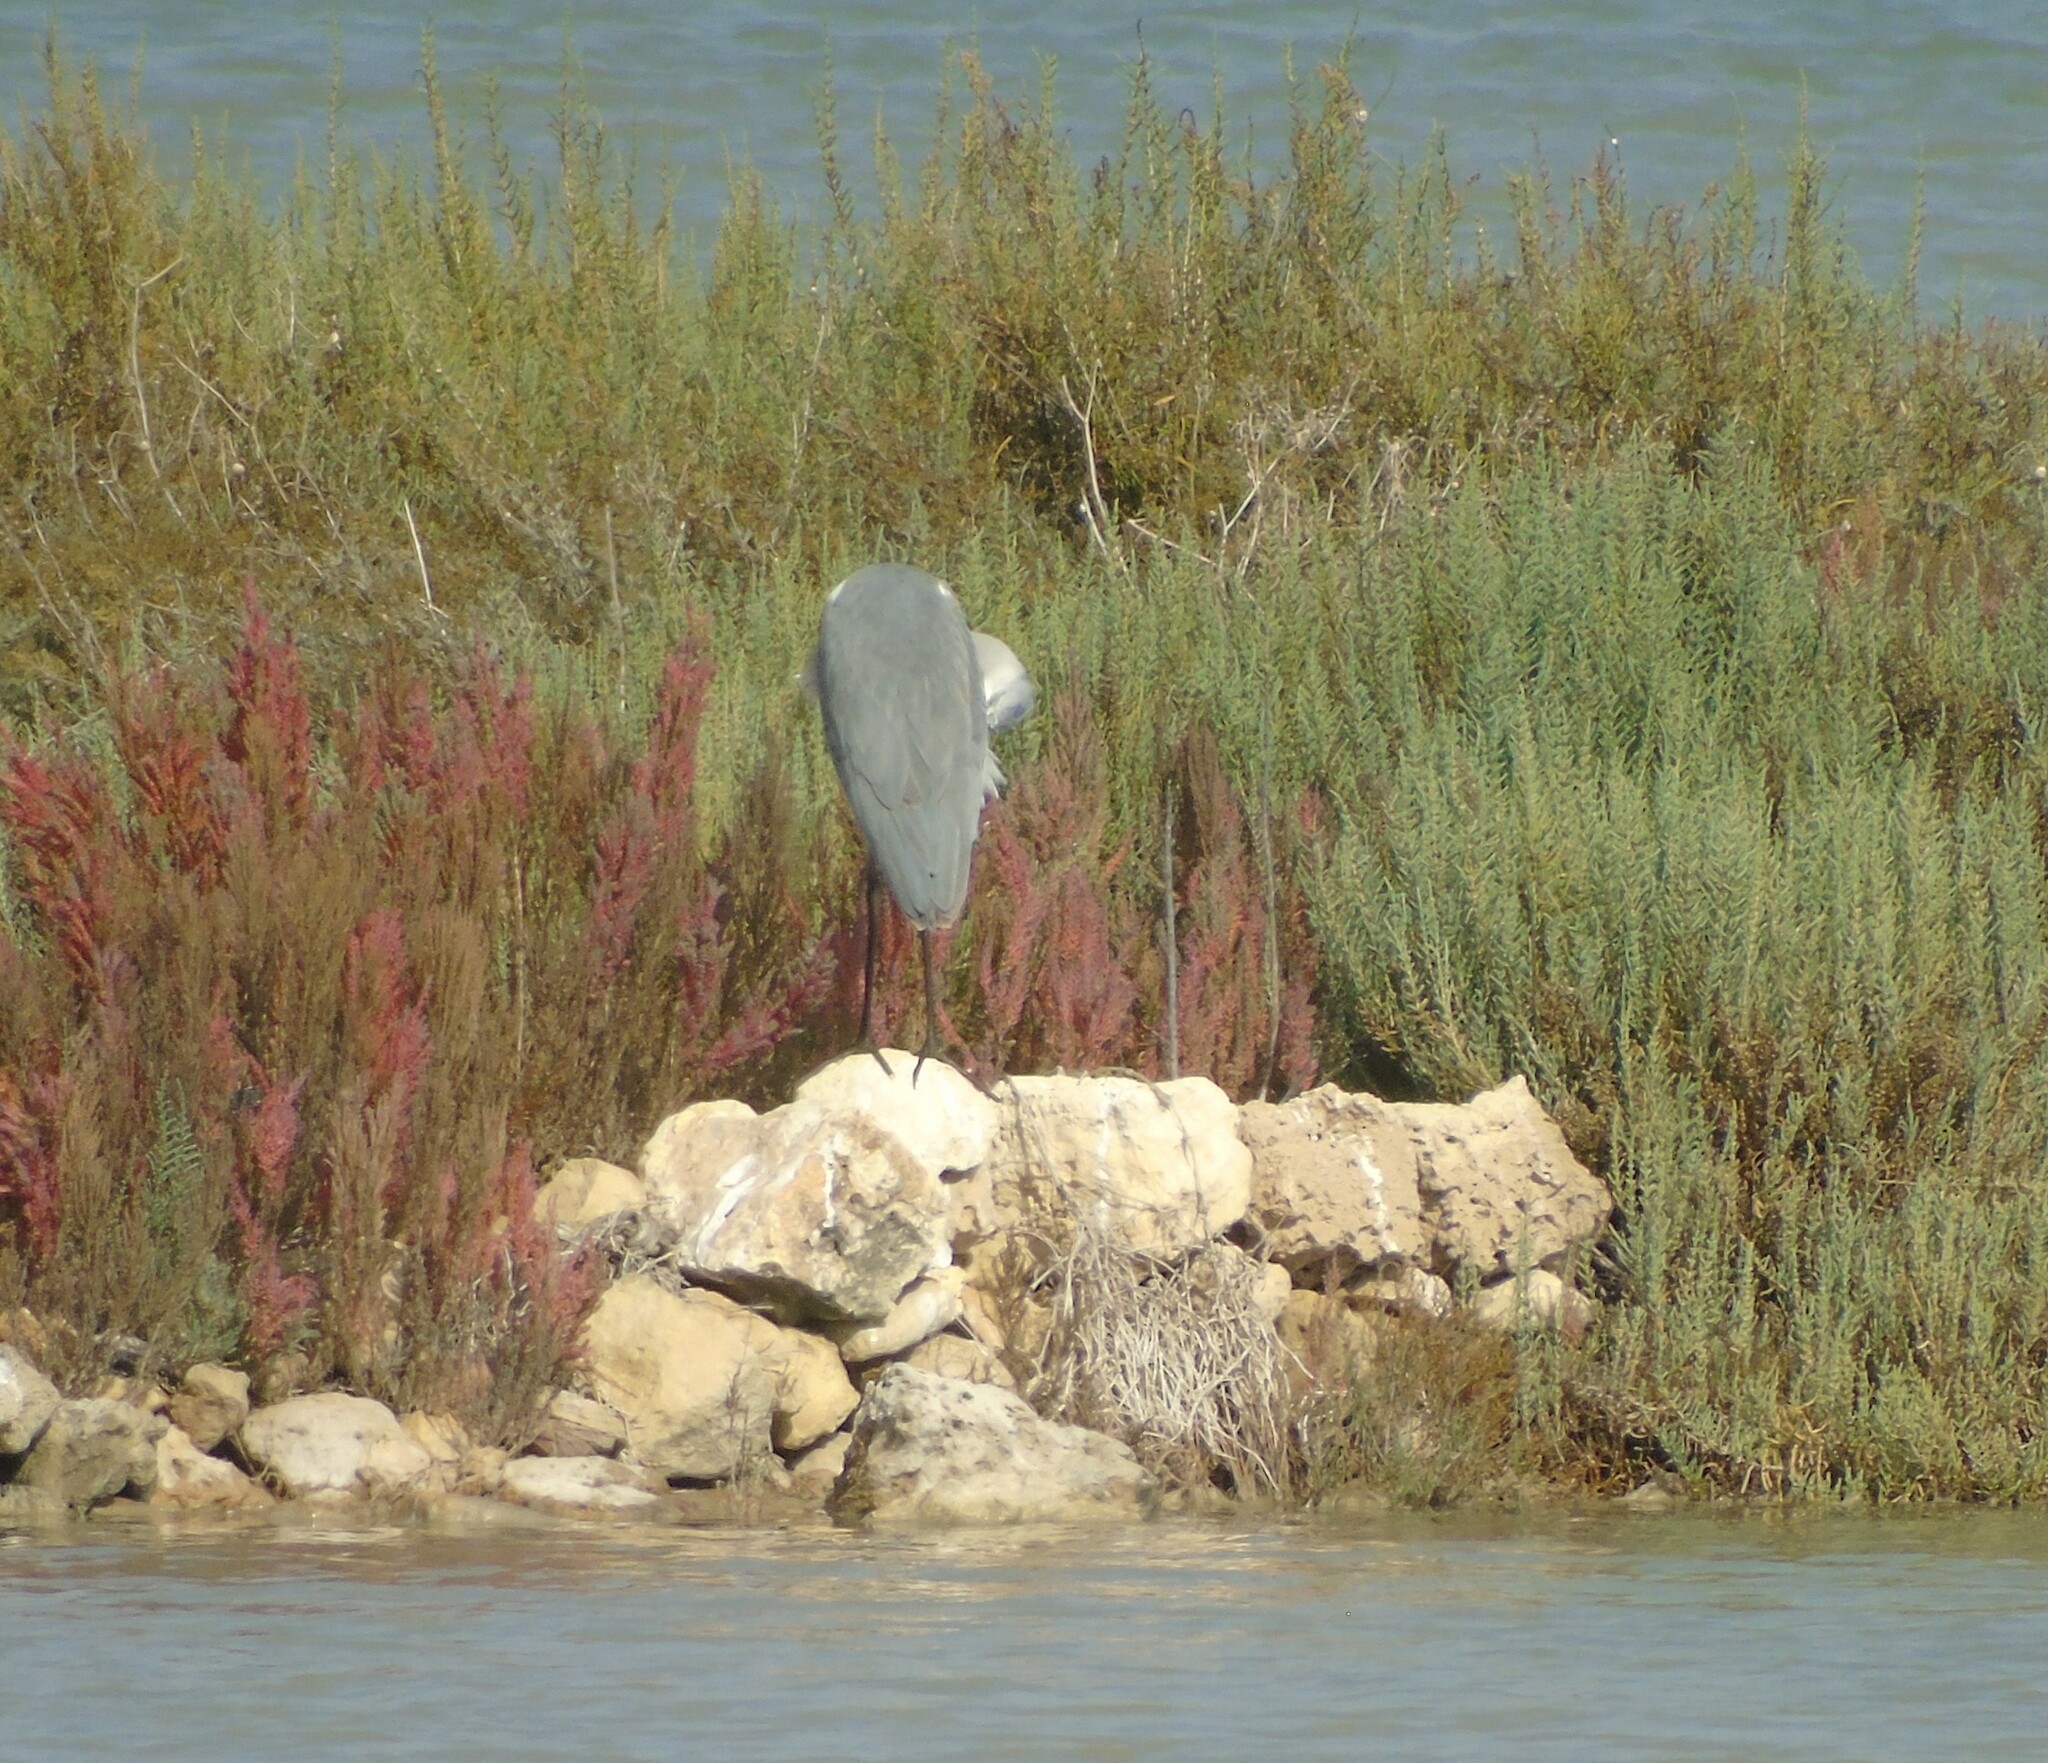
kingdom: Animalia
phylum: Chordata
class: Aves
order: Pelecaniformes
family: Ardeidae
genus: Ardea
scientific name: Ardea cinerea
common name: Grey heron
